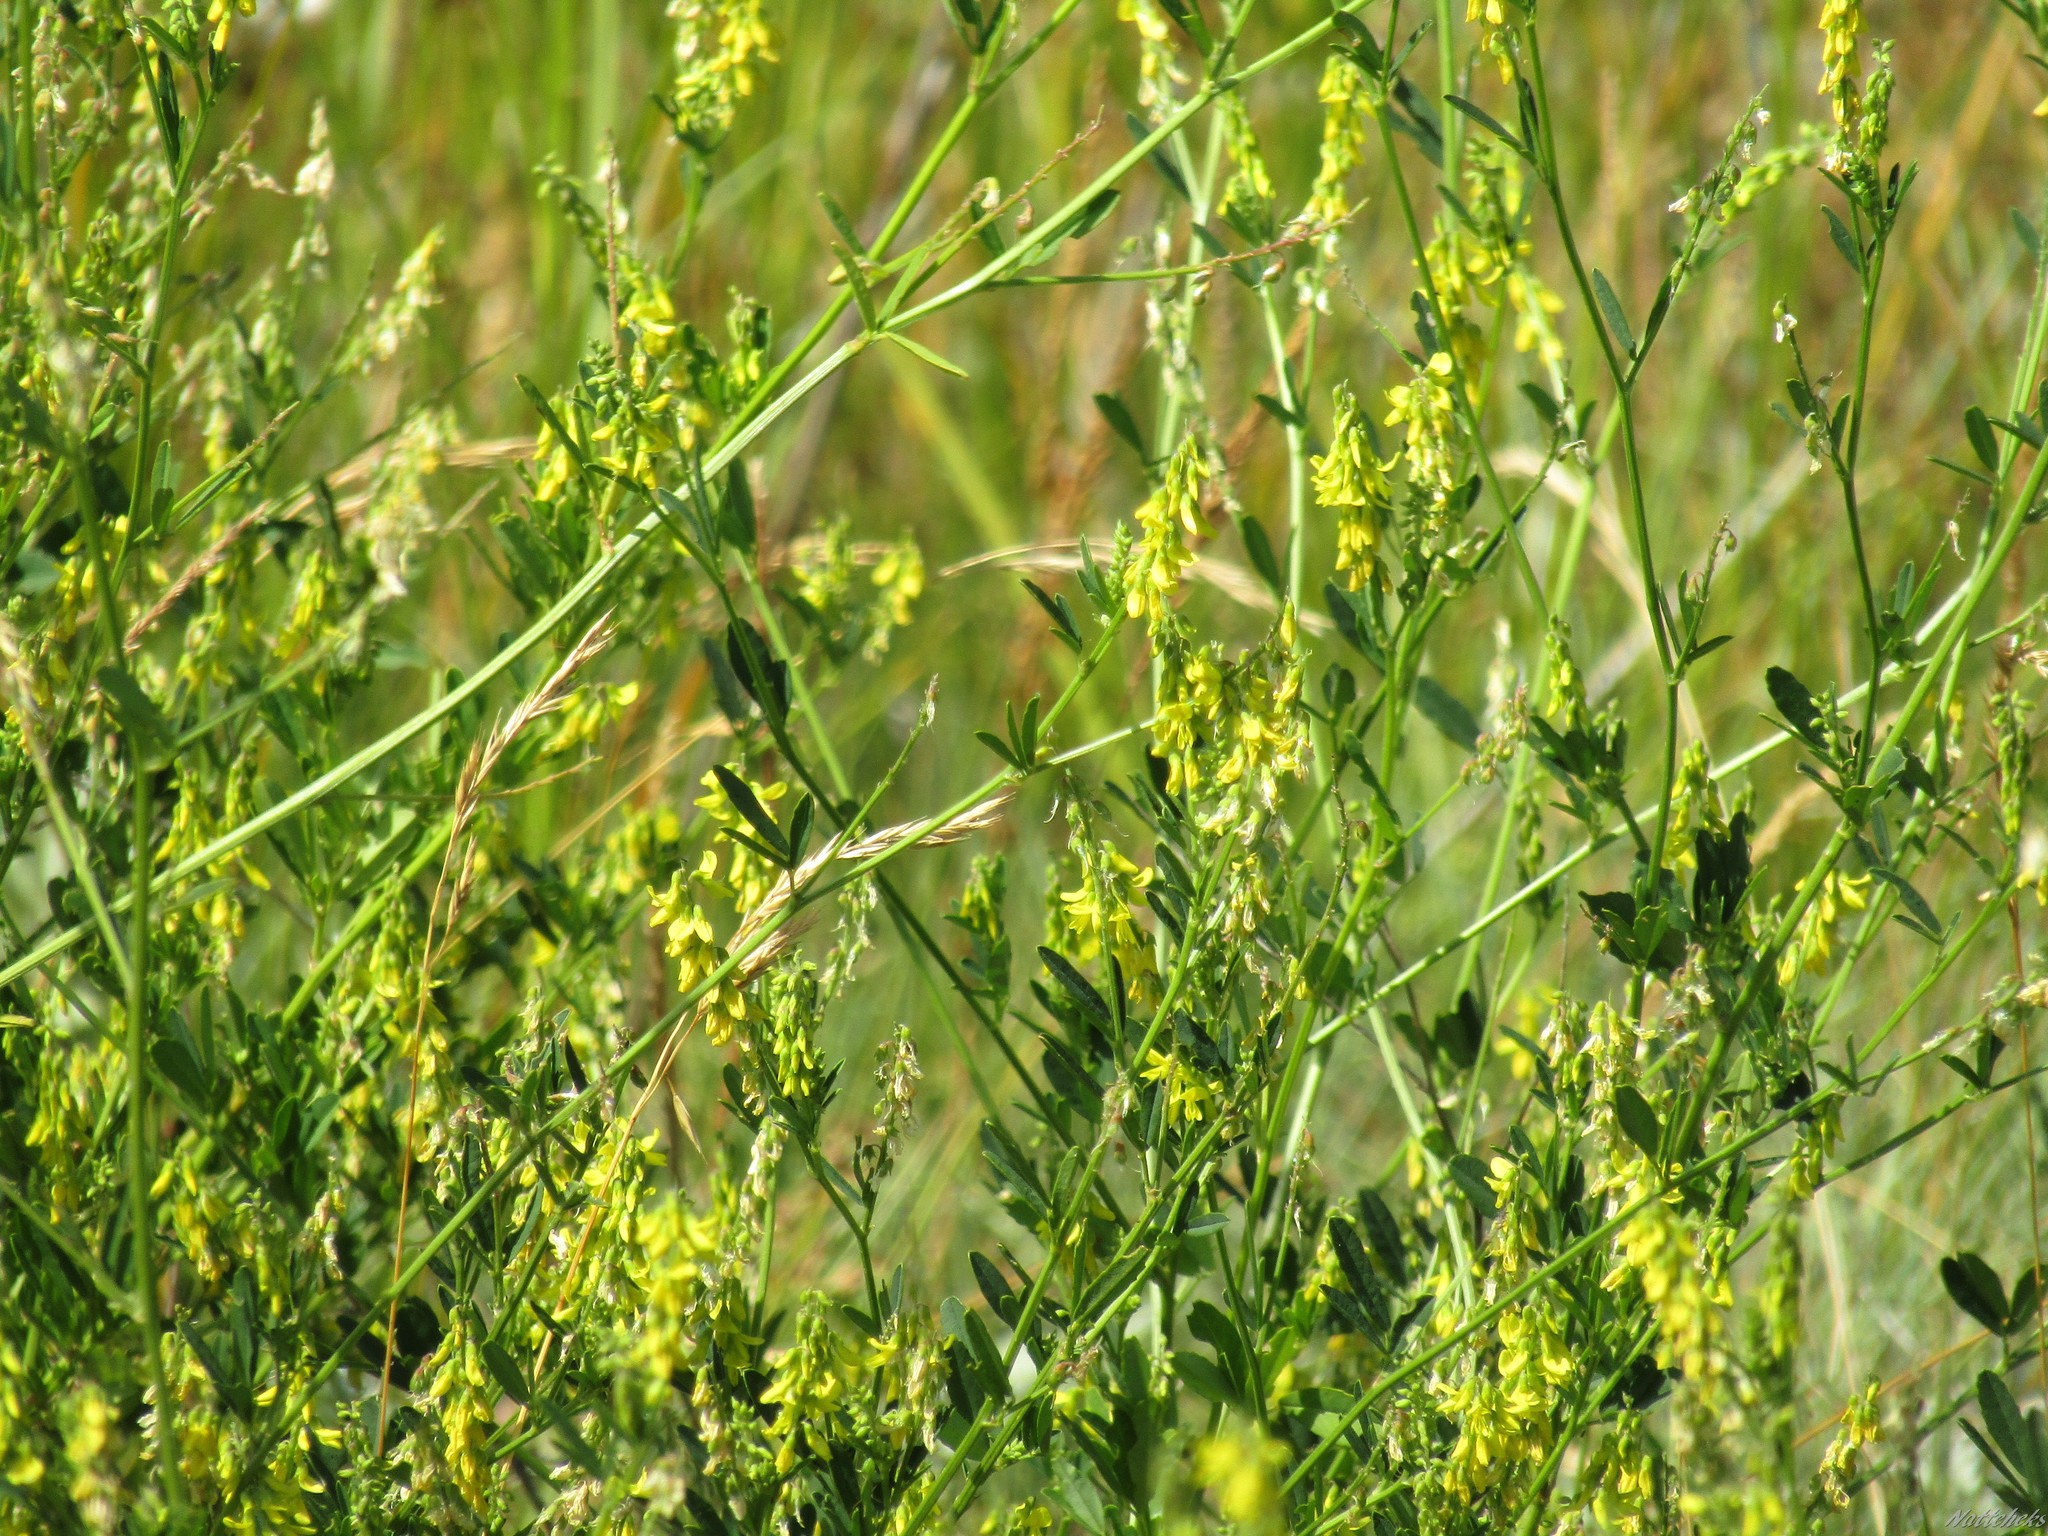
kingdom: Plantae
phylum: Tracheophyta
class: Magnoliopsida
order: Fabales
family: Fabaceae
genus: Melilotus
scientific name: Melilotus officinalis
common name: Sweetclover
